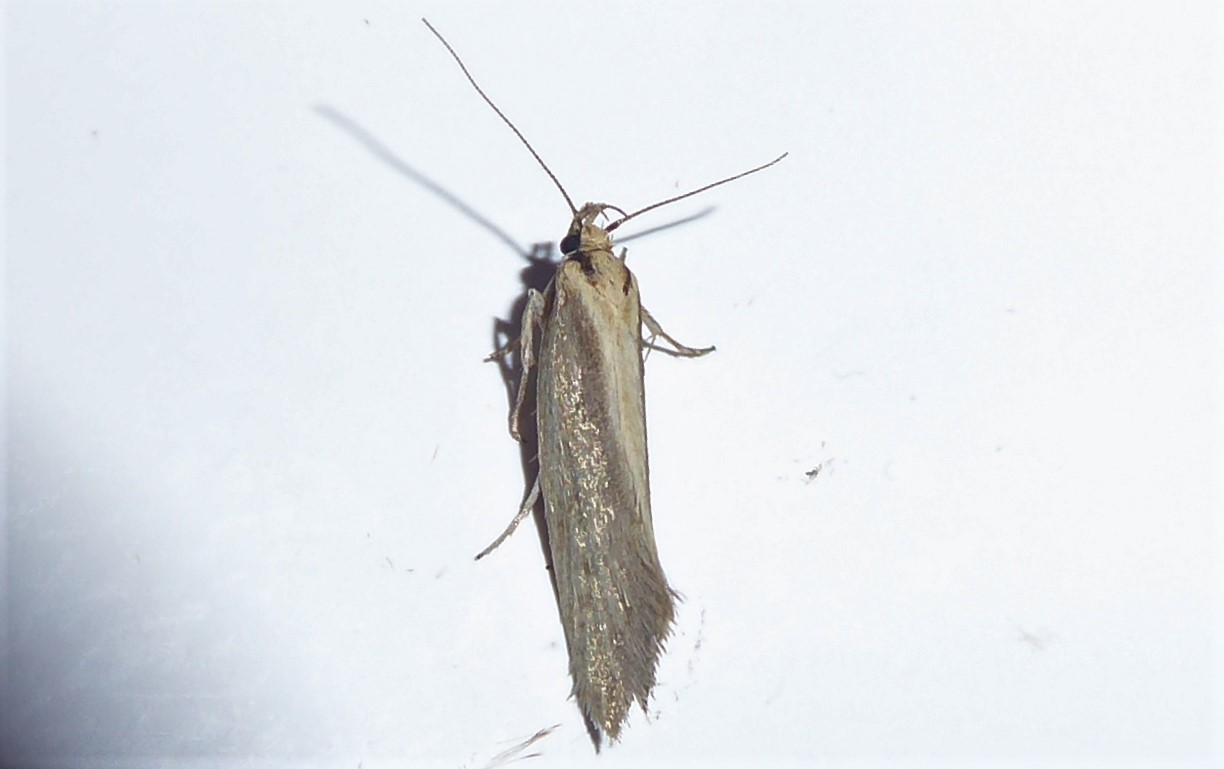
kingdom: Animalia
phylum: Arthropoda
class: Insecta
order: Lepidoptera
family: Oecophoridae
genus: Tingena
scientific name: Tingena chloradelpha
